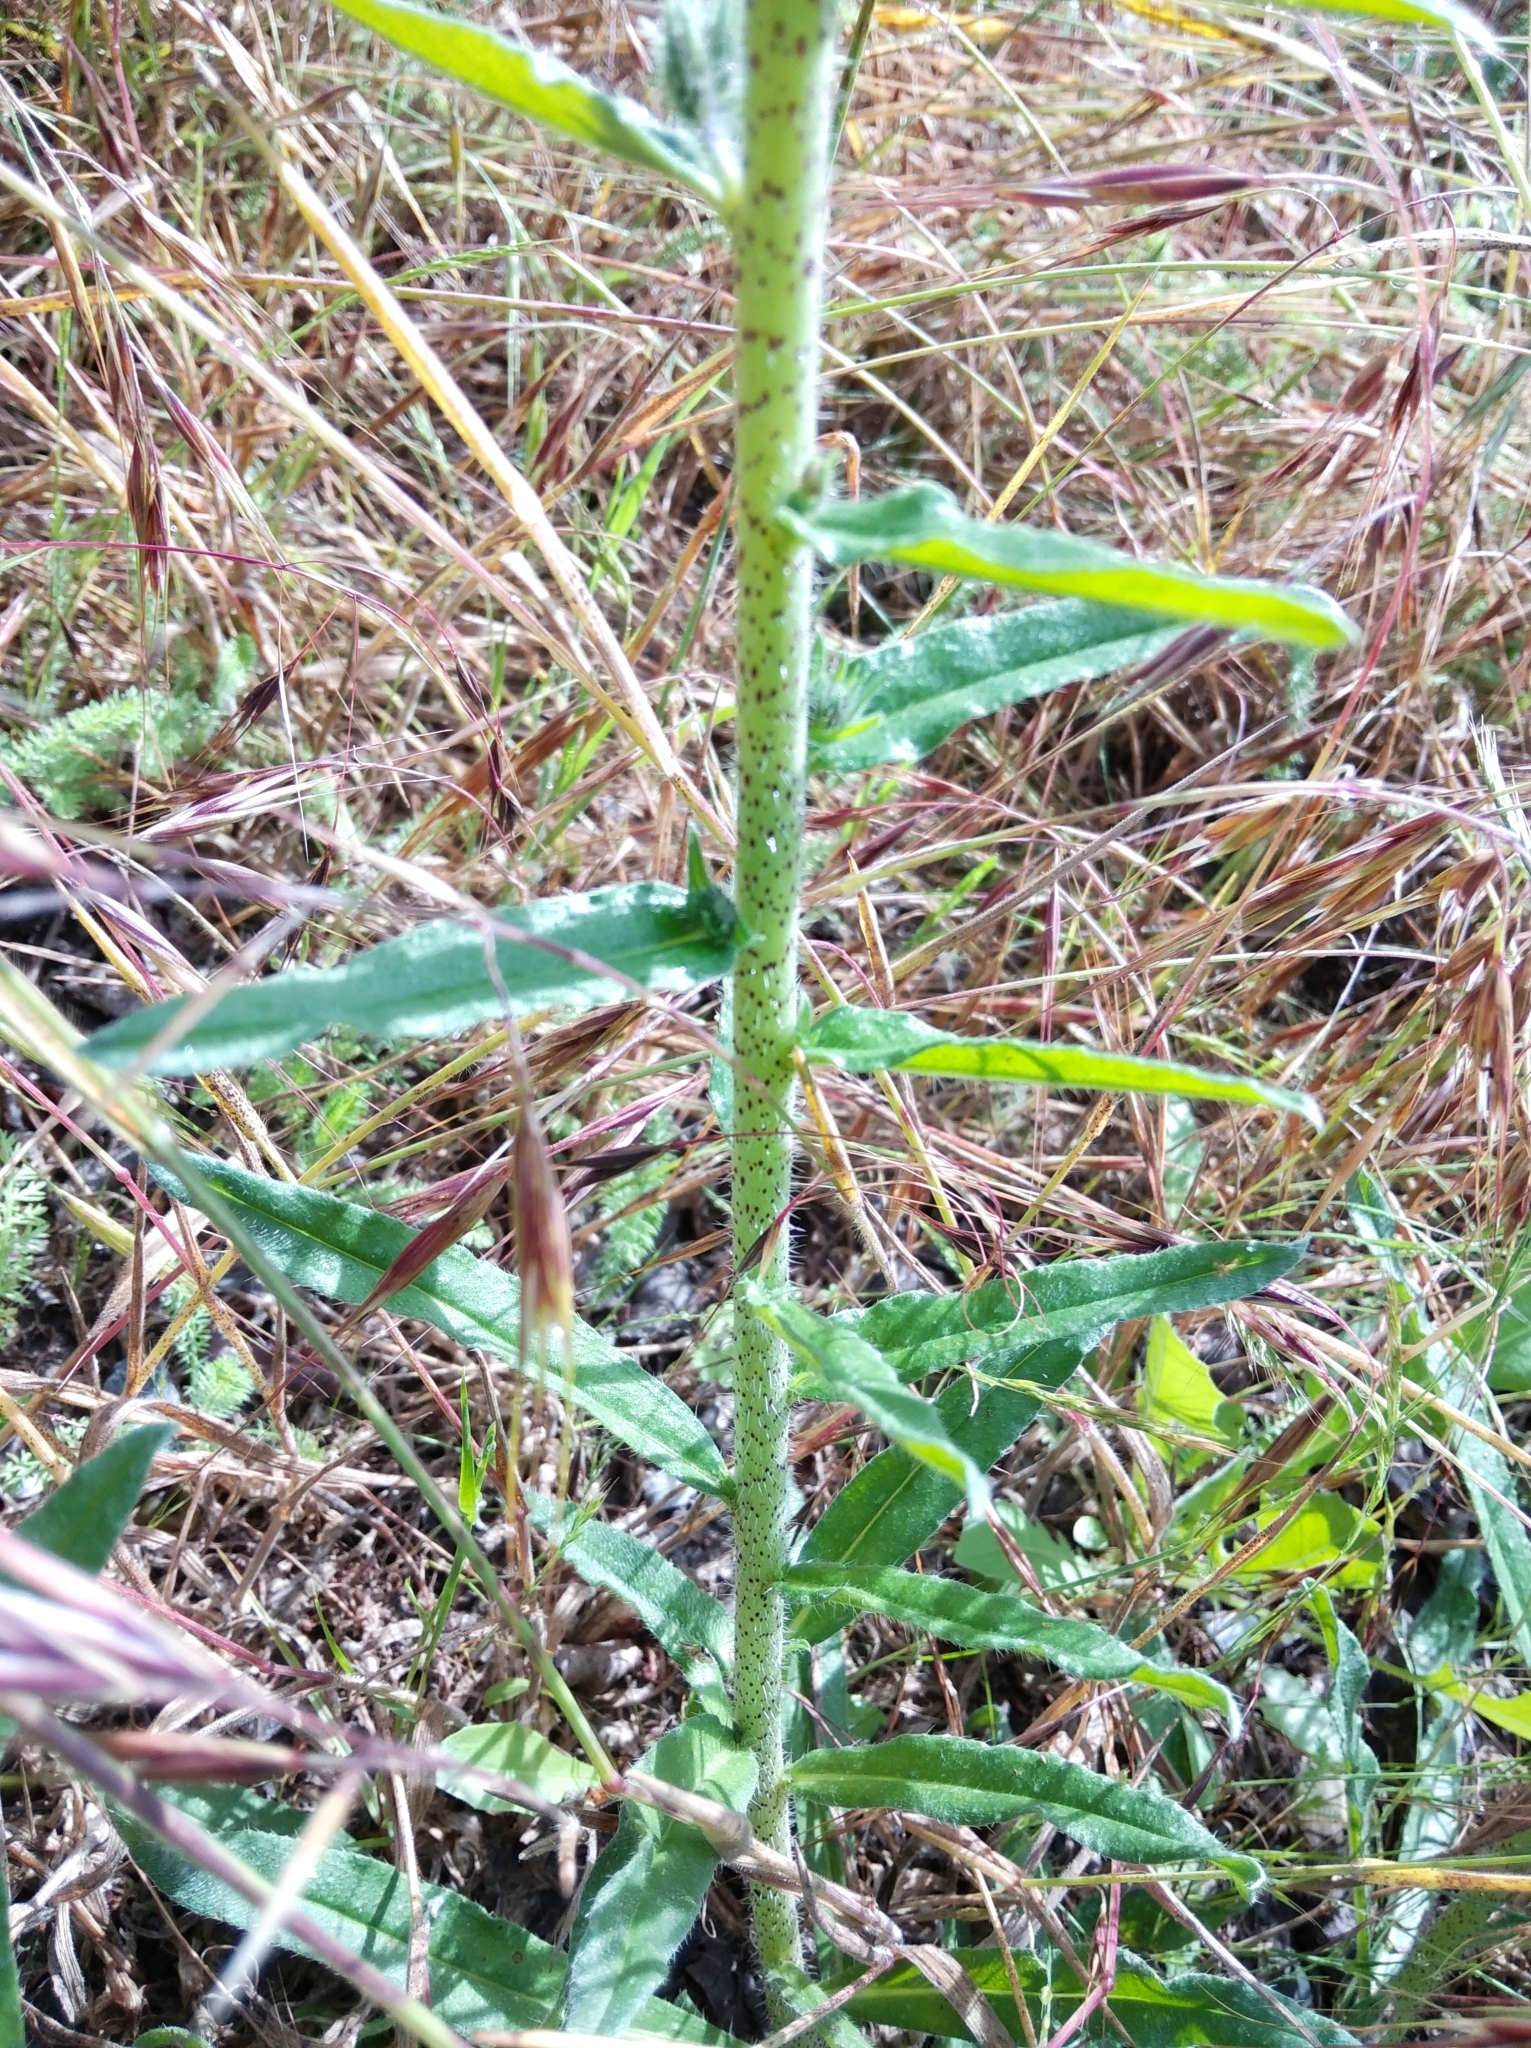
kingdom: Plantae
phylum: Tracheophyta
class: Magnoliopsida
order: Boraginales
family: Boraginaceae
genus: Echium
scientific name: Echium vulgare
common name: Common viper's bugloss
